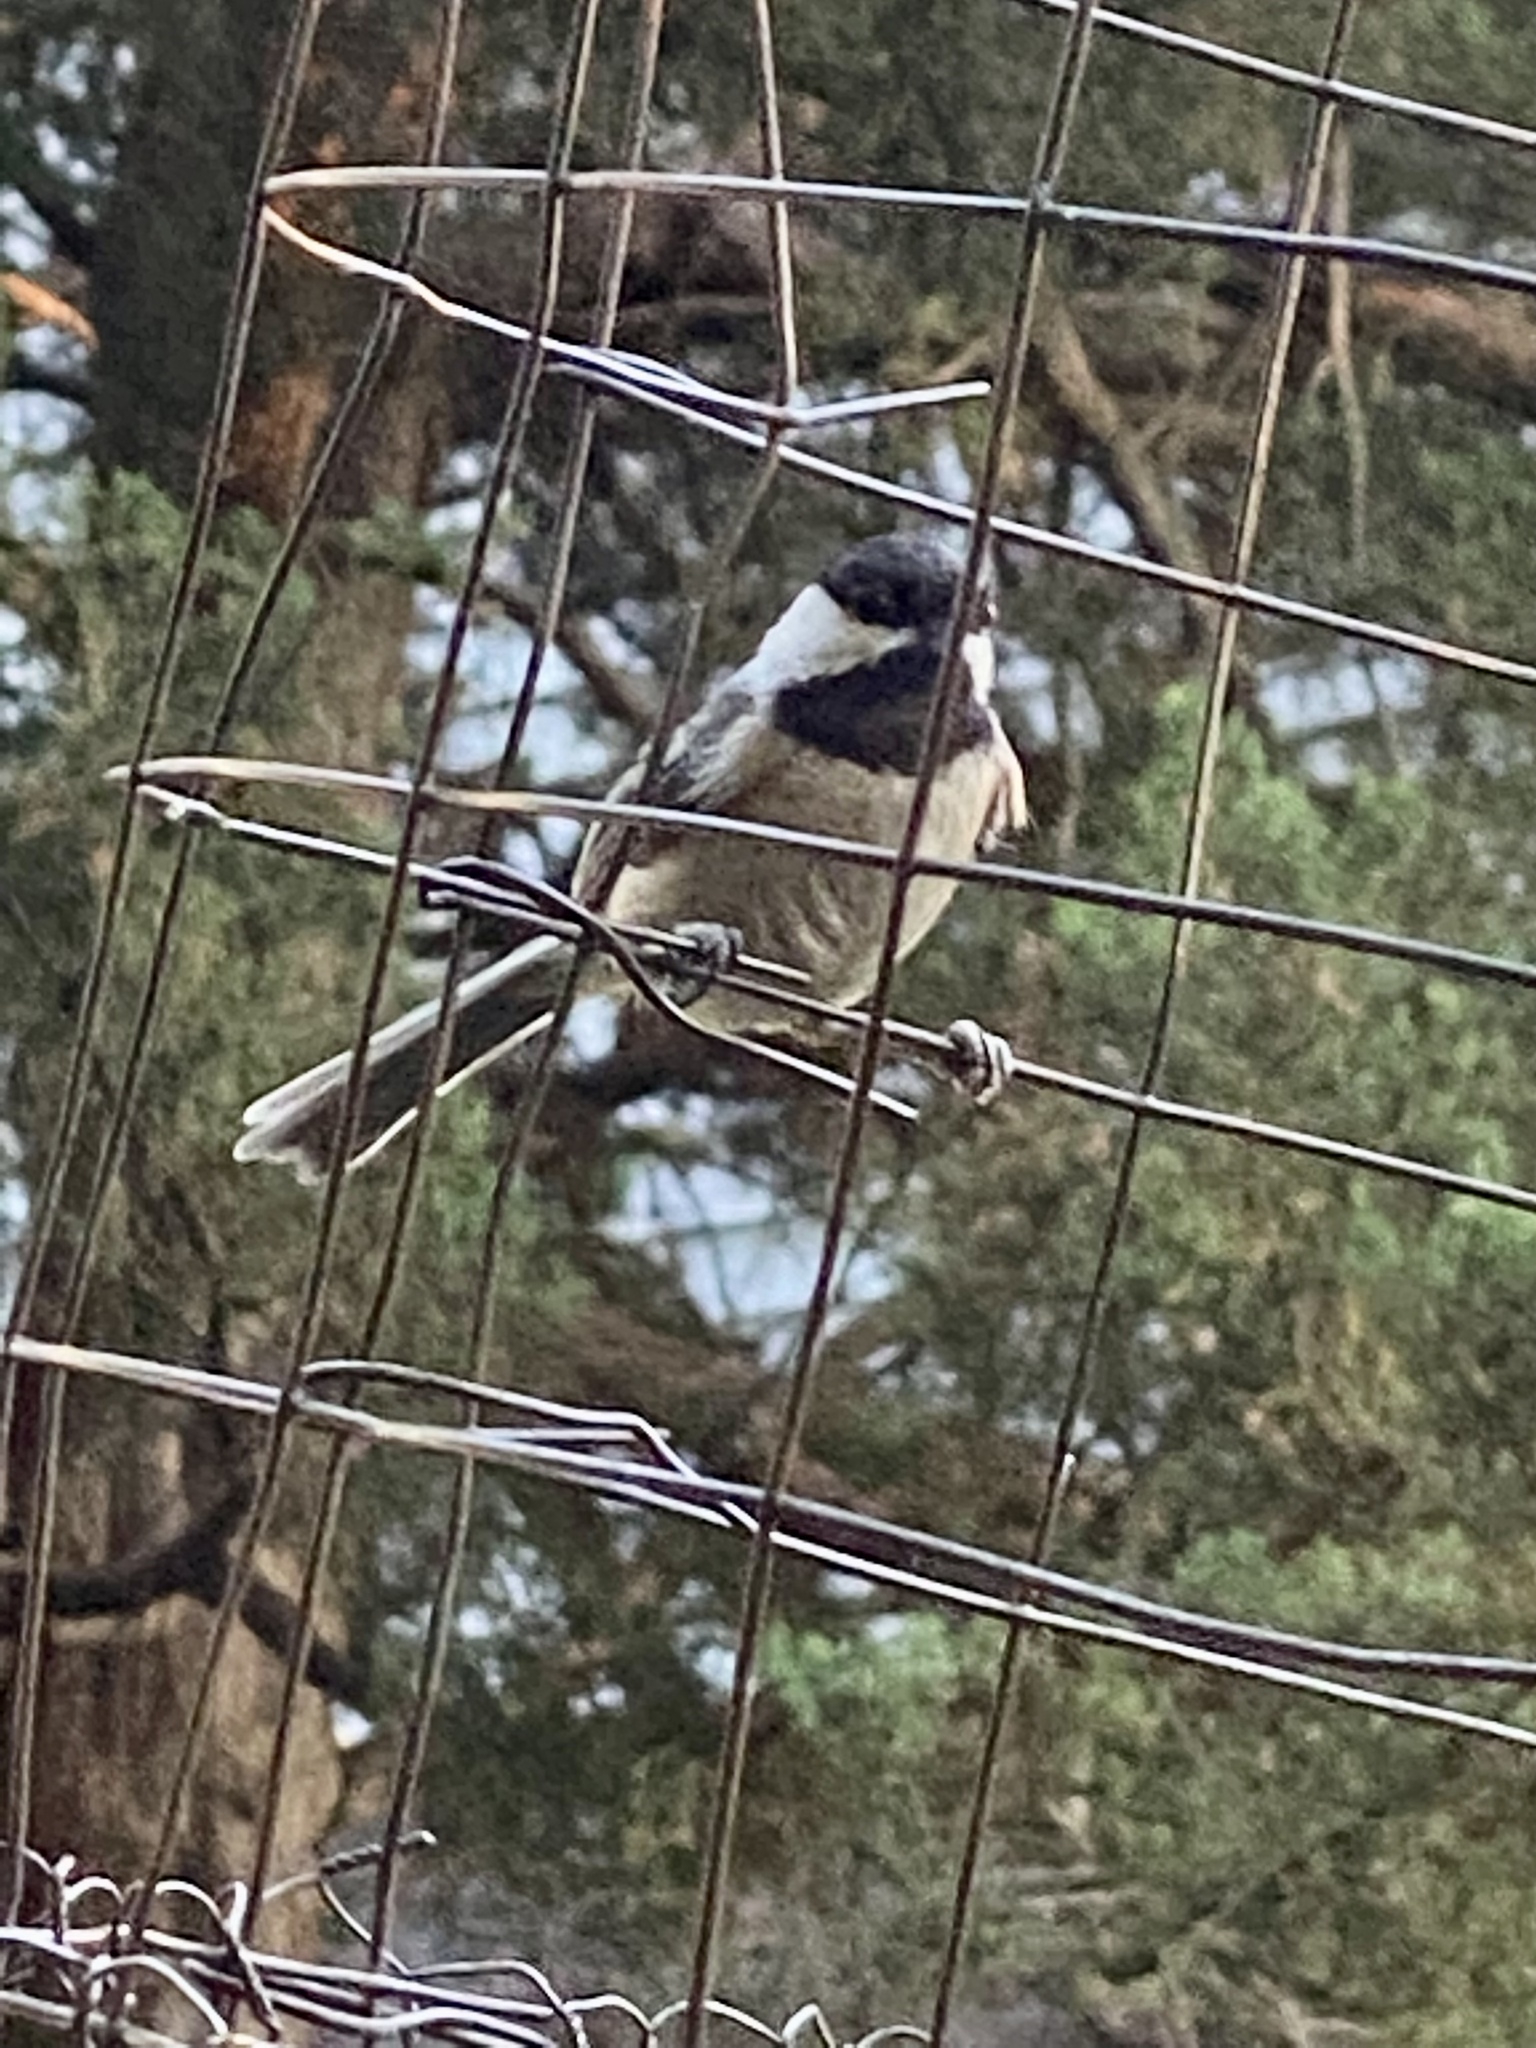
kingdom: Animalia
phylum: Chordata
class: Aves
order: Passeriformes
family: Paridae
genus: Poecile
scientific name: Poecile atricapillus
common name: Black-capped chickadee
